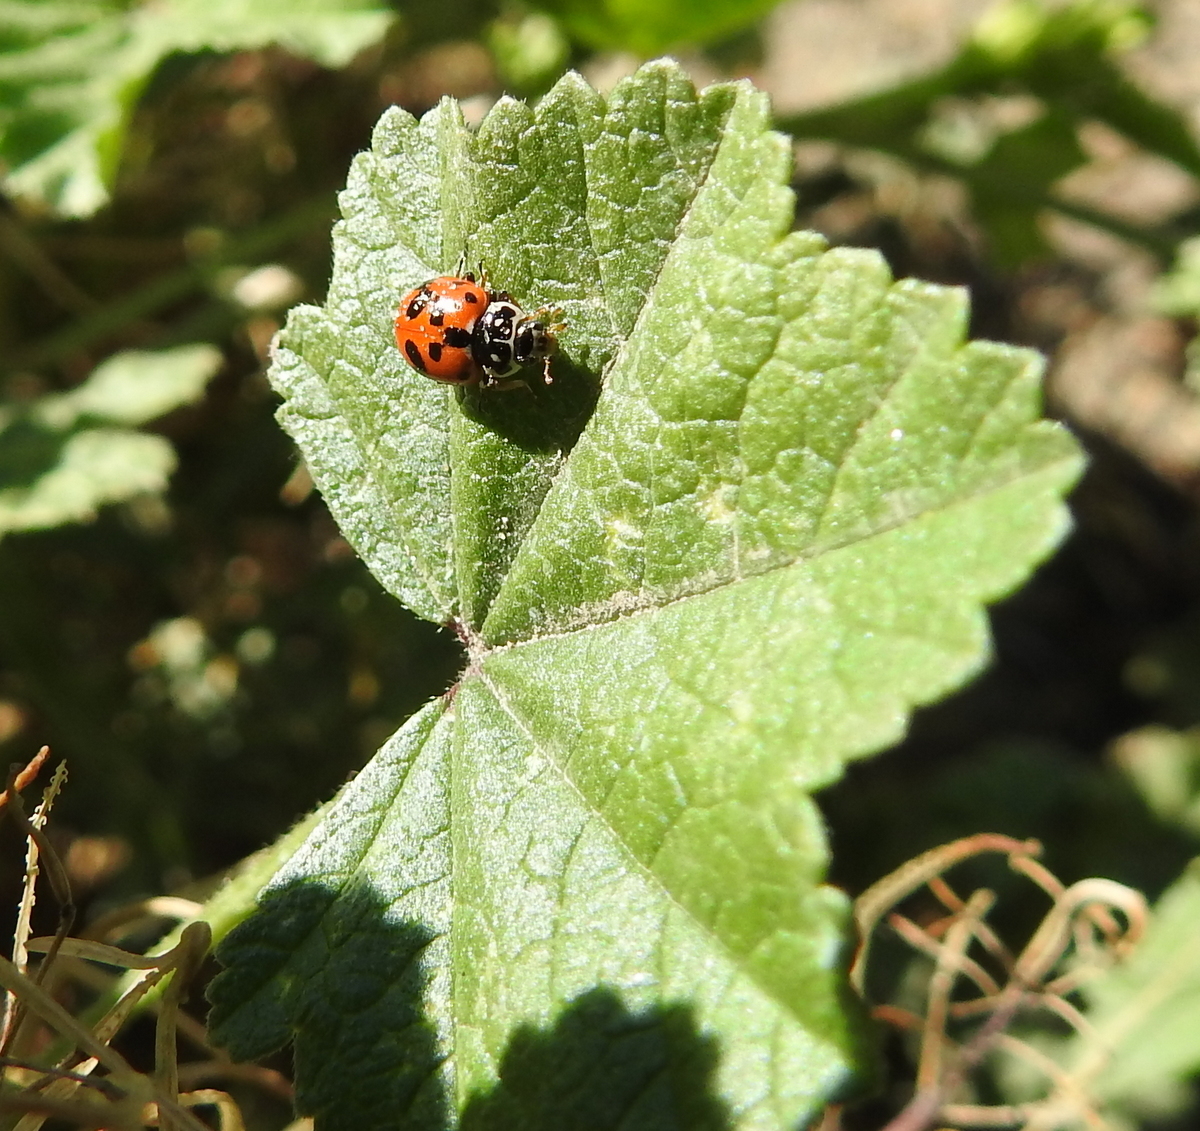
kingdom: Animalia
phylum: Arthropoda
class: Insecta
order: Coleoptera
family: Coccinellidae
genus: Hippodamia
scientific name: Hippodamia convergens
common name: Convergent lady beetle
